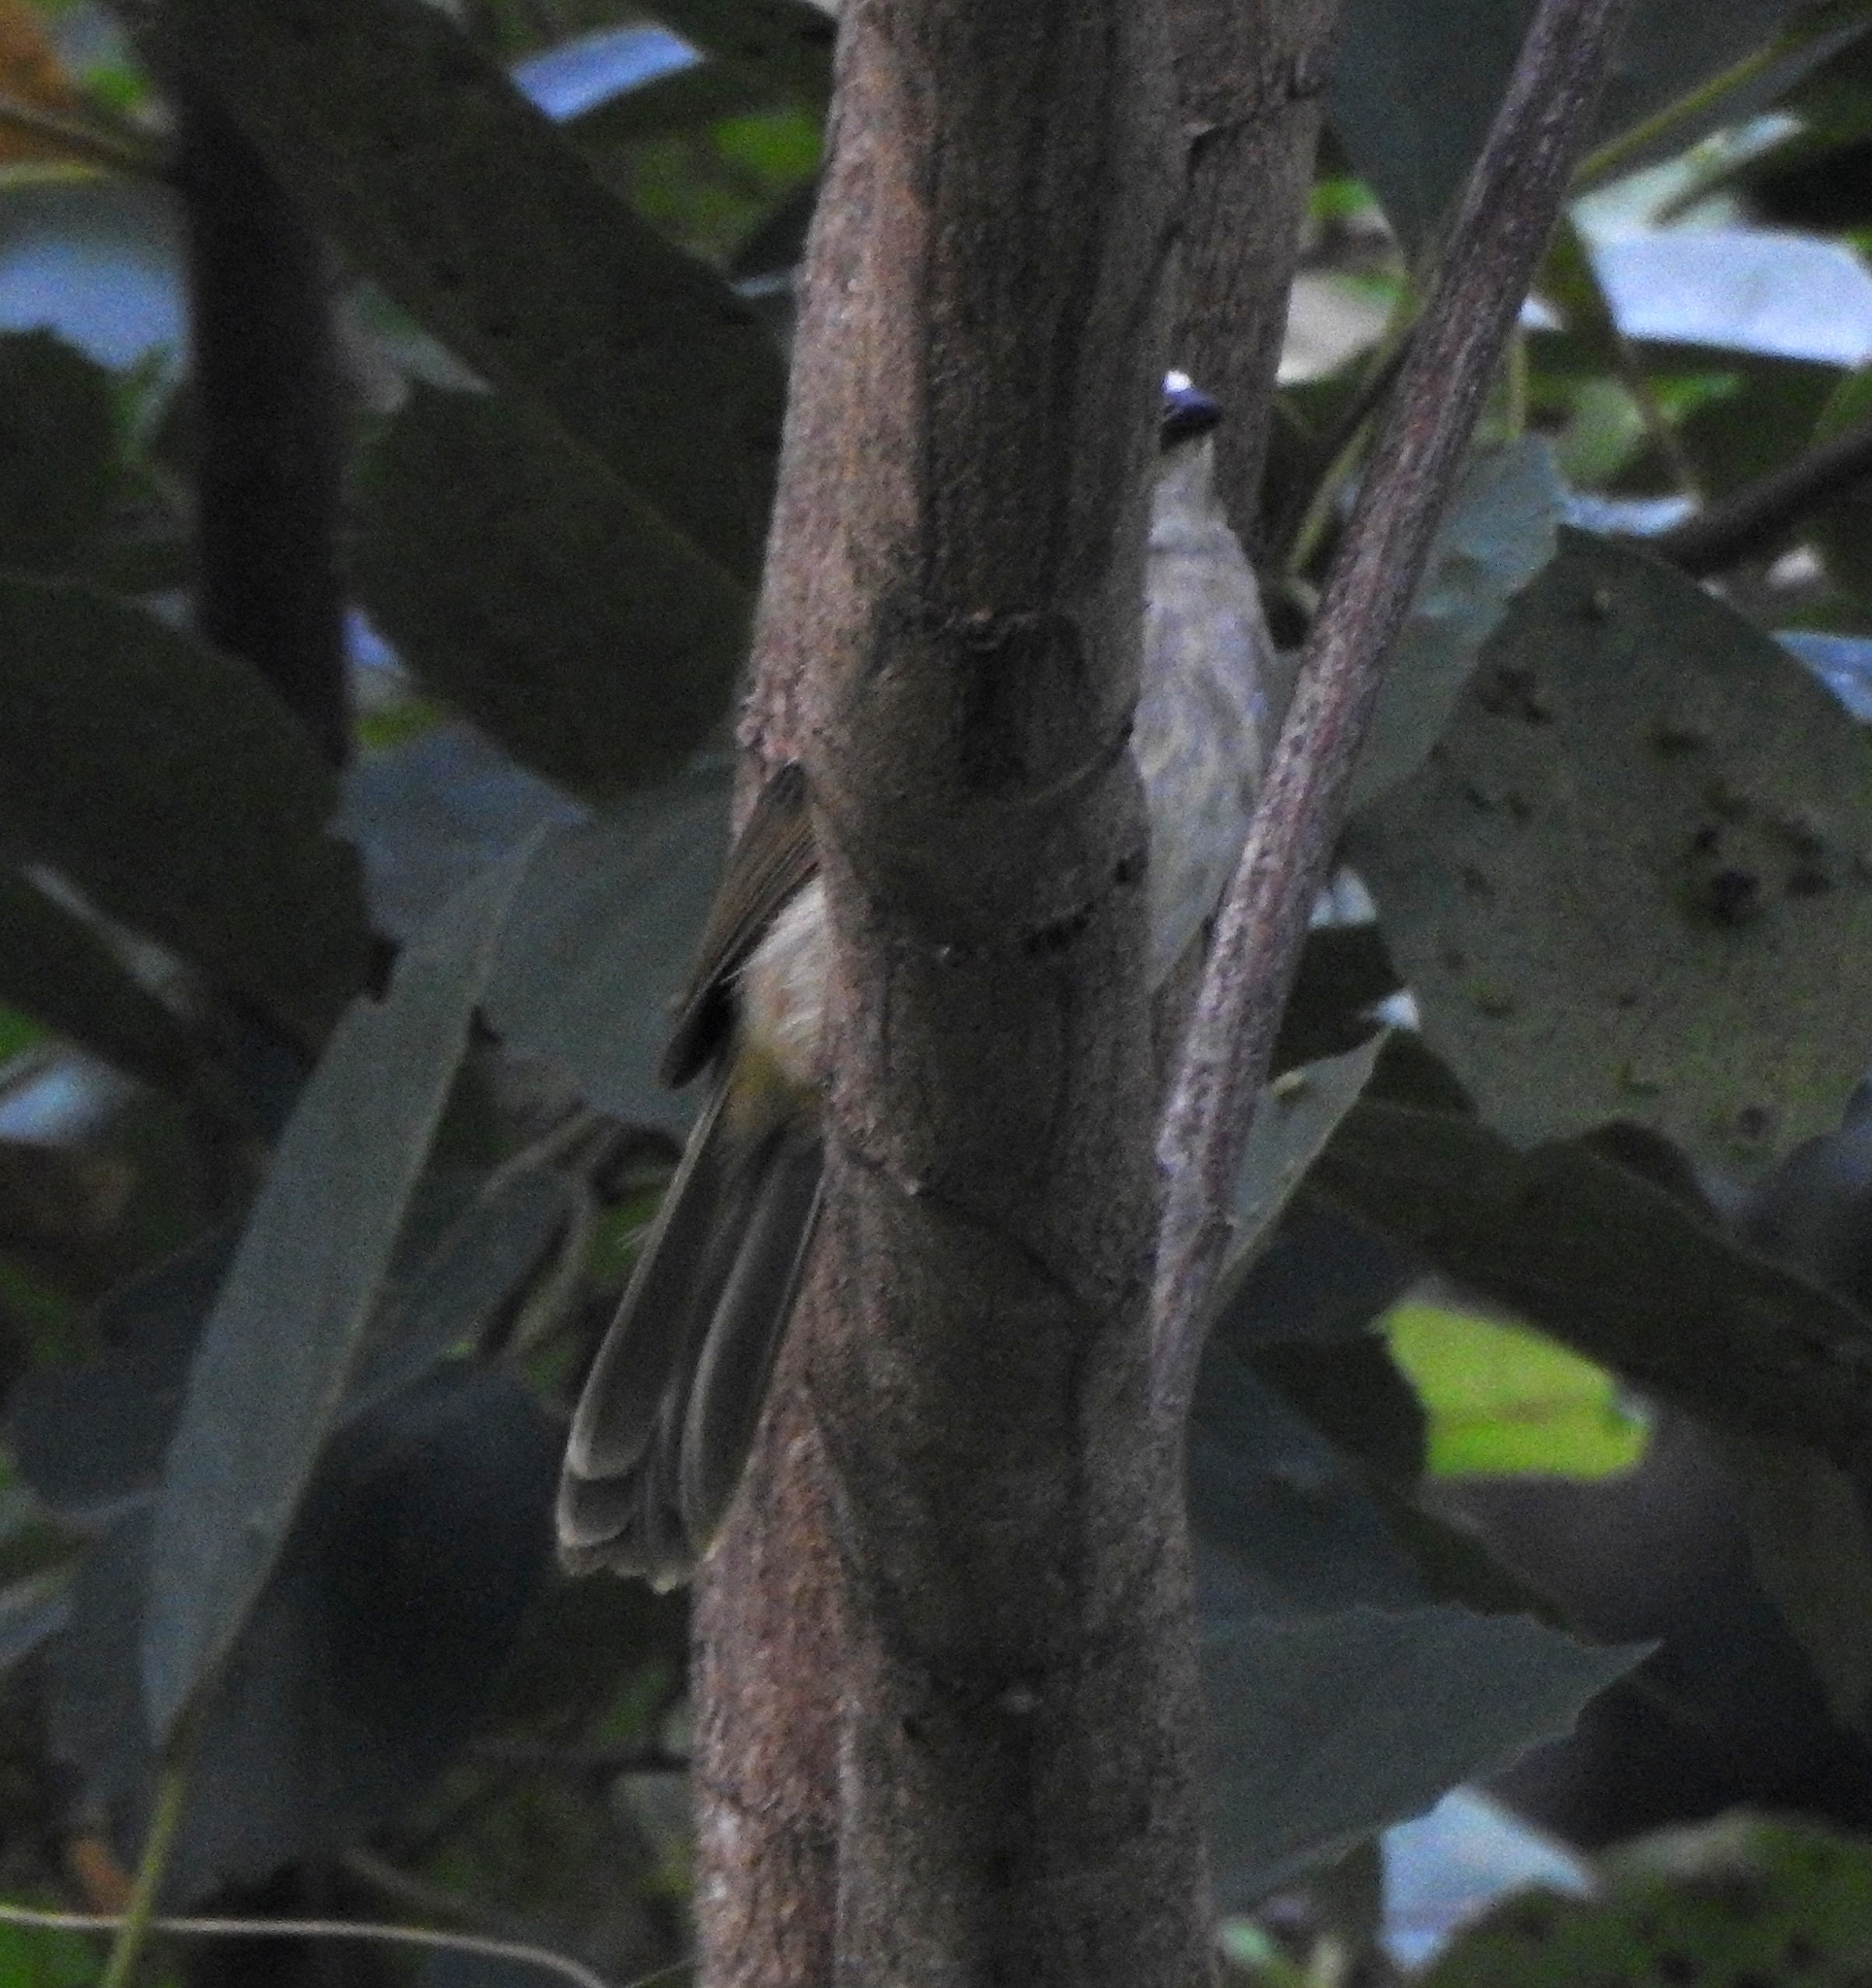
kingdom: Animalia
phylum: Chordata
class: Aves
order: Passeriformes
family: Pycnonotidae
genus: Pycnonotus
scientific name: Pycnonotus luteolus
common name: White-browed bulbul
